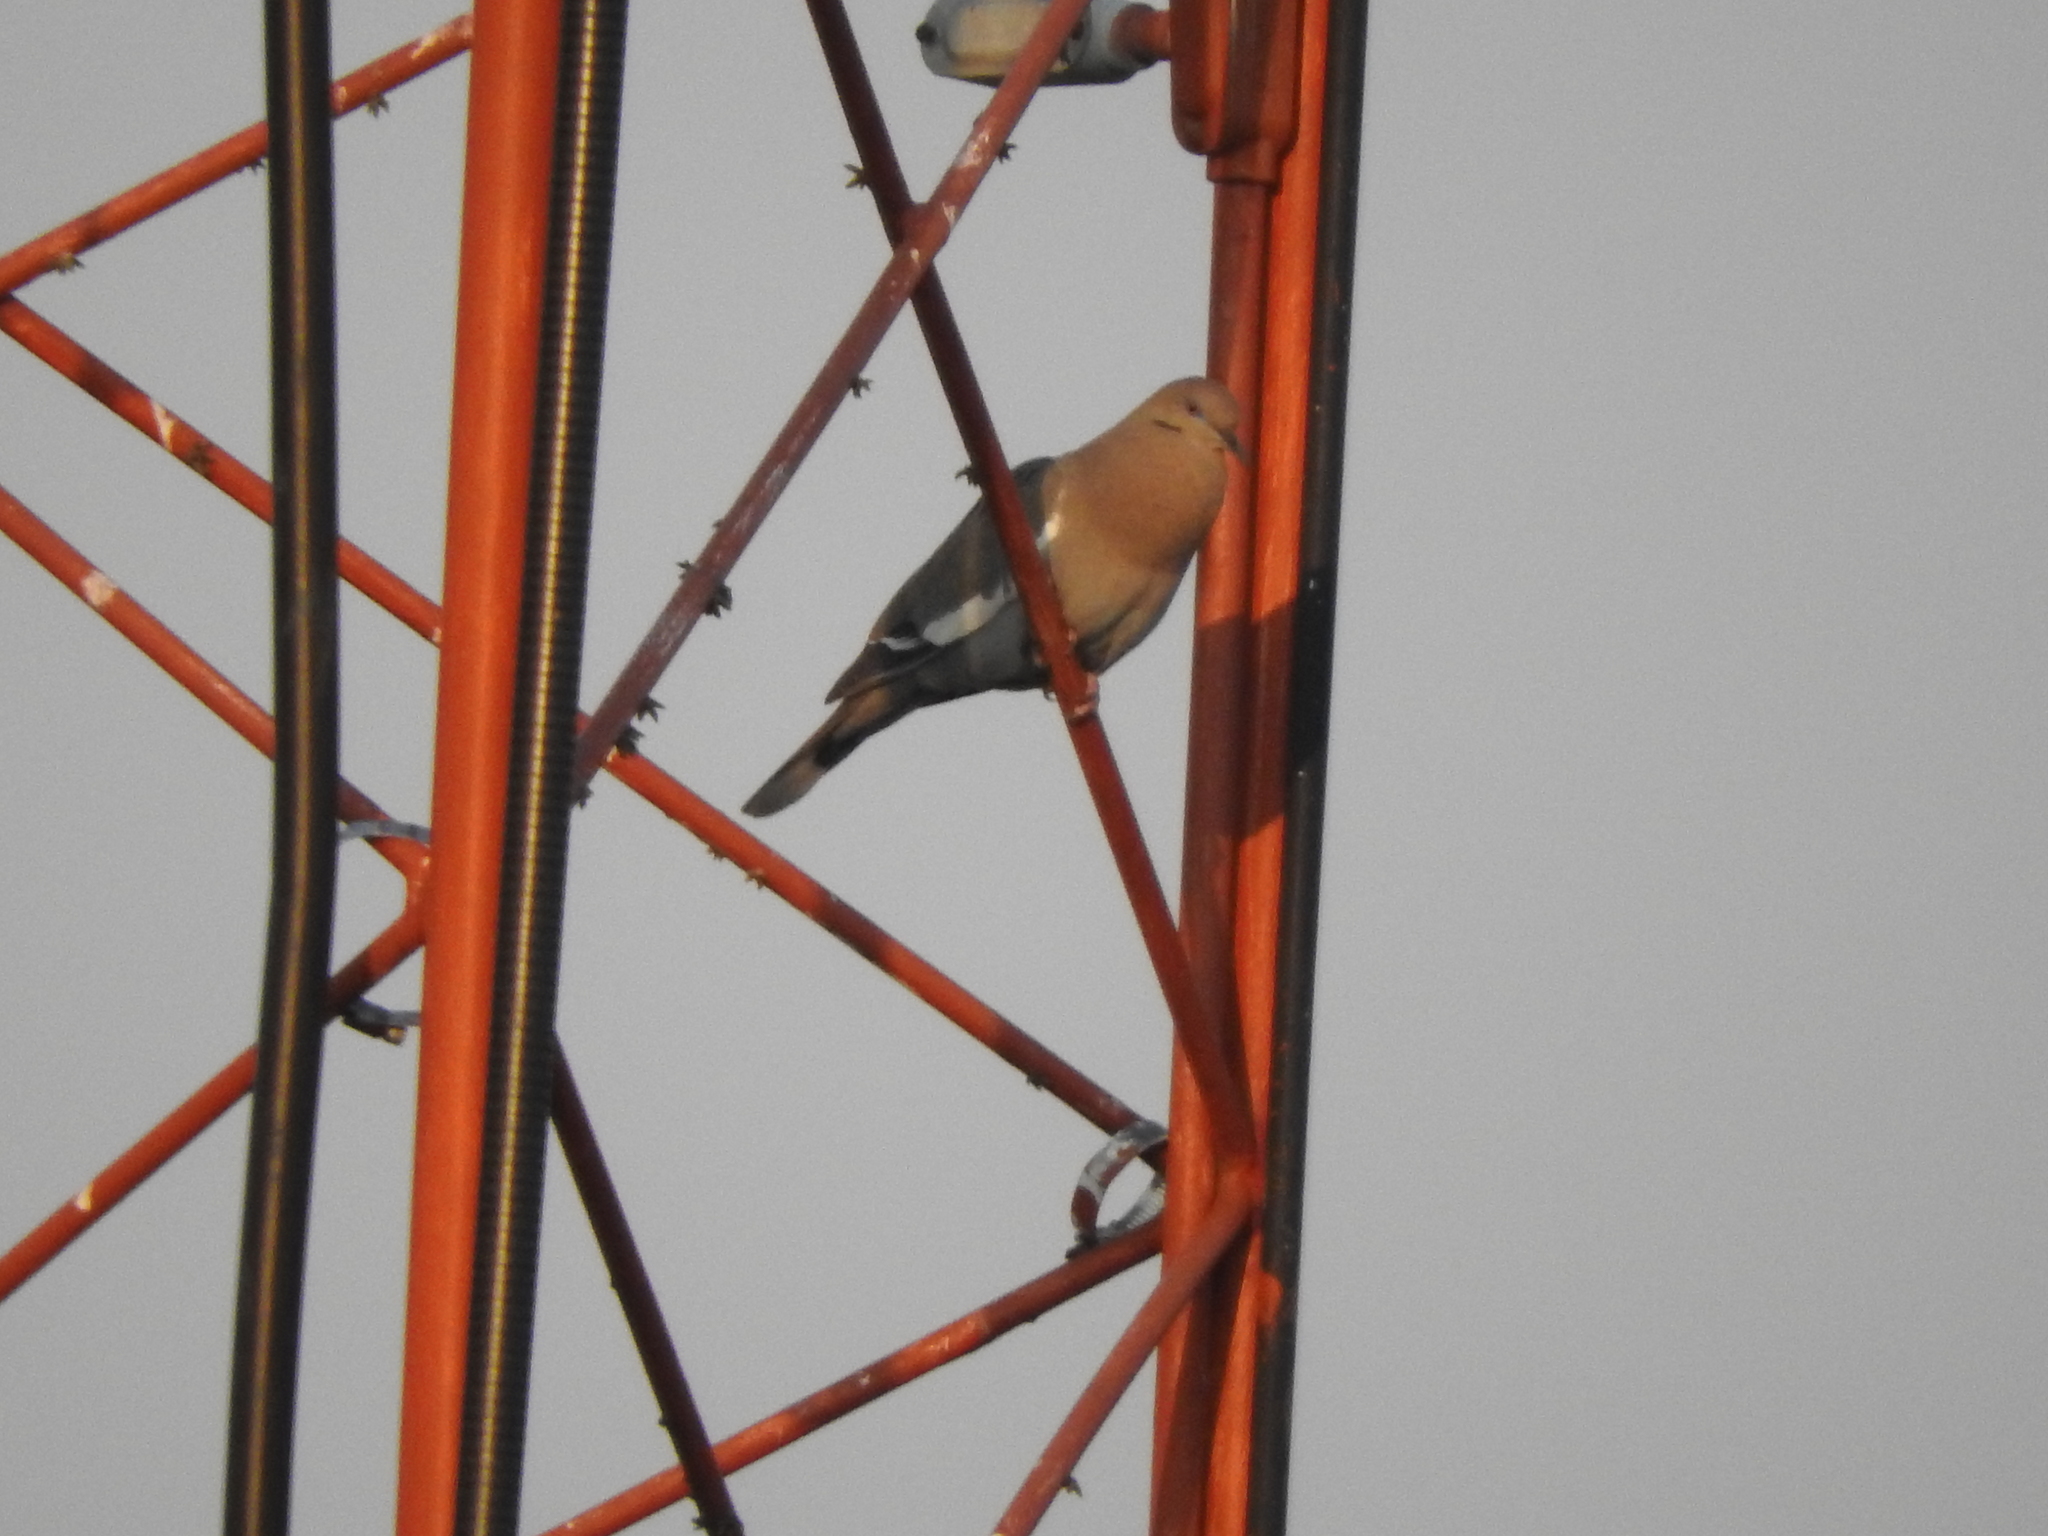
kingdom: Animalia
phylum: Chordata
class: Aves
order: Columbiformes
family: Columbidae
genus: Zenaida
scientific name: Zenaida asiatica
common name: White-winged dove
